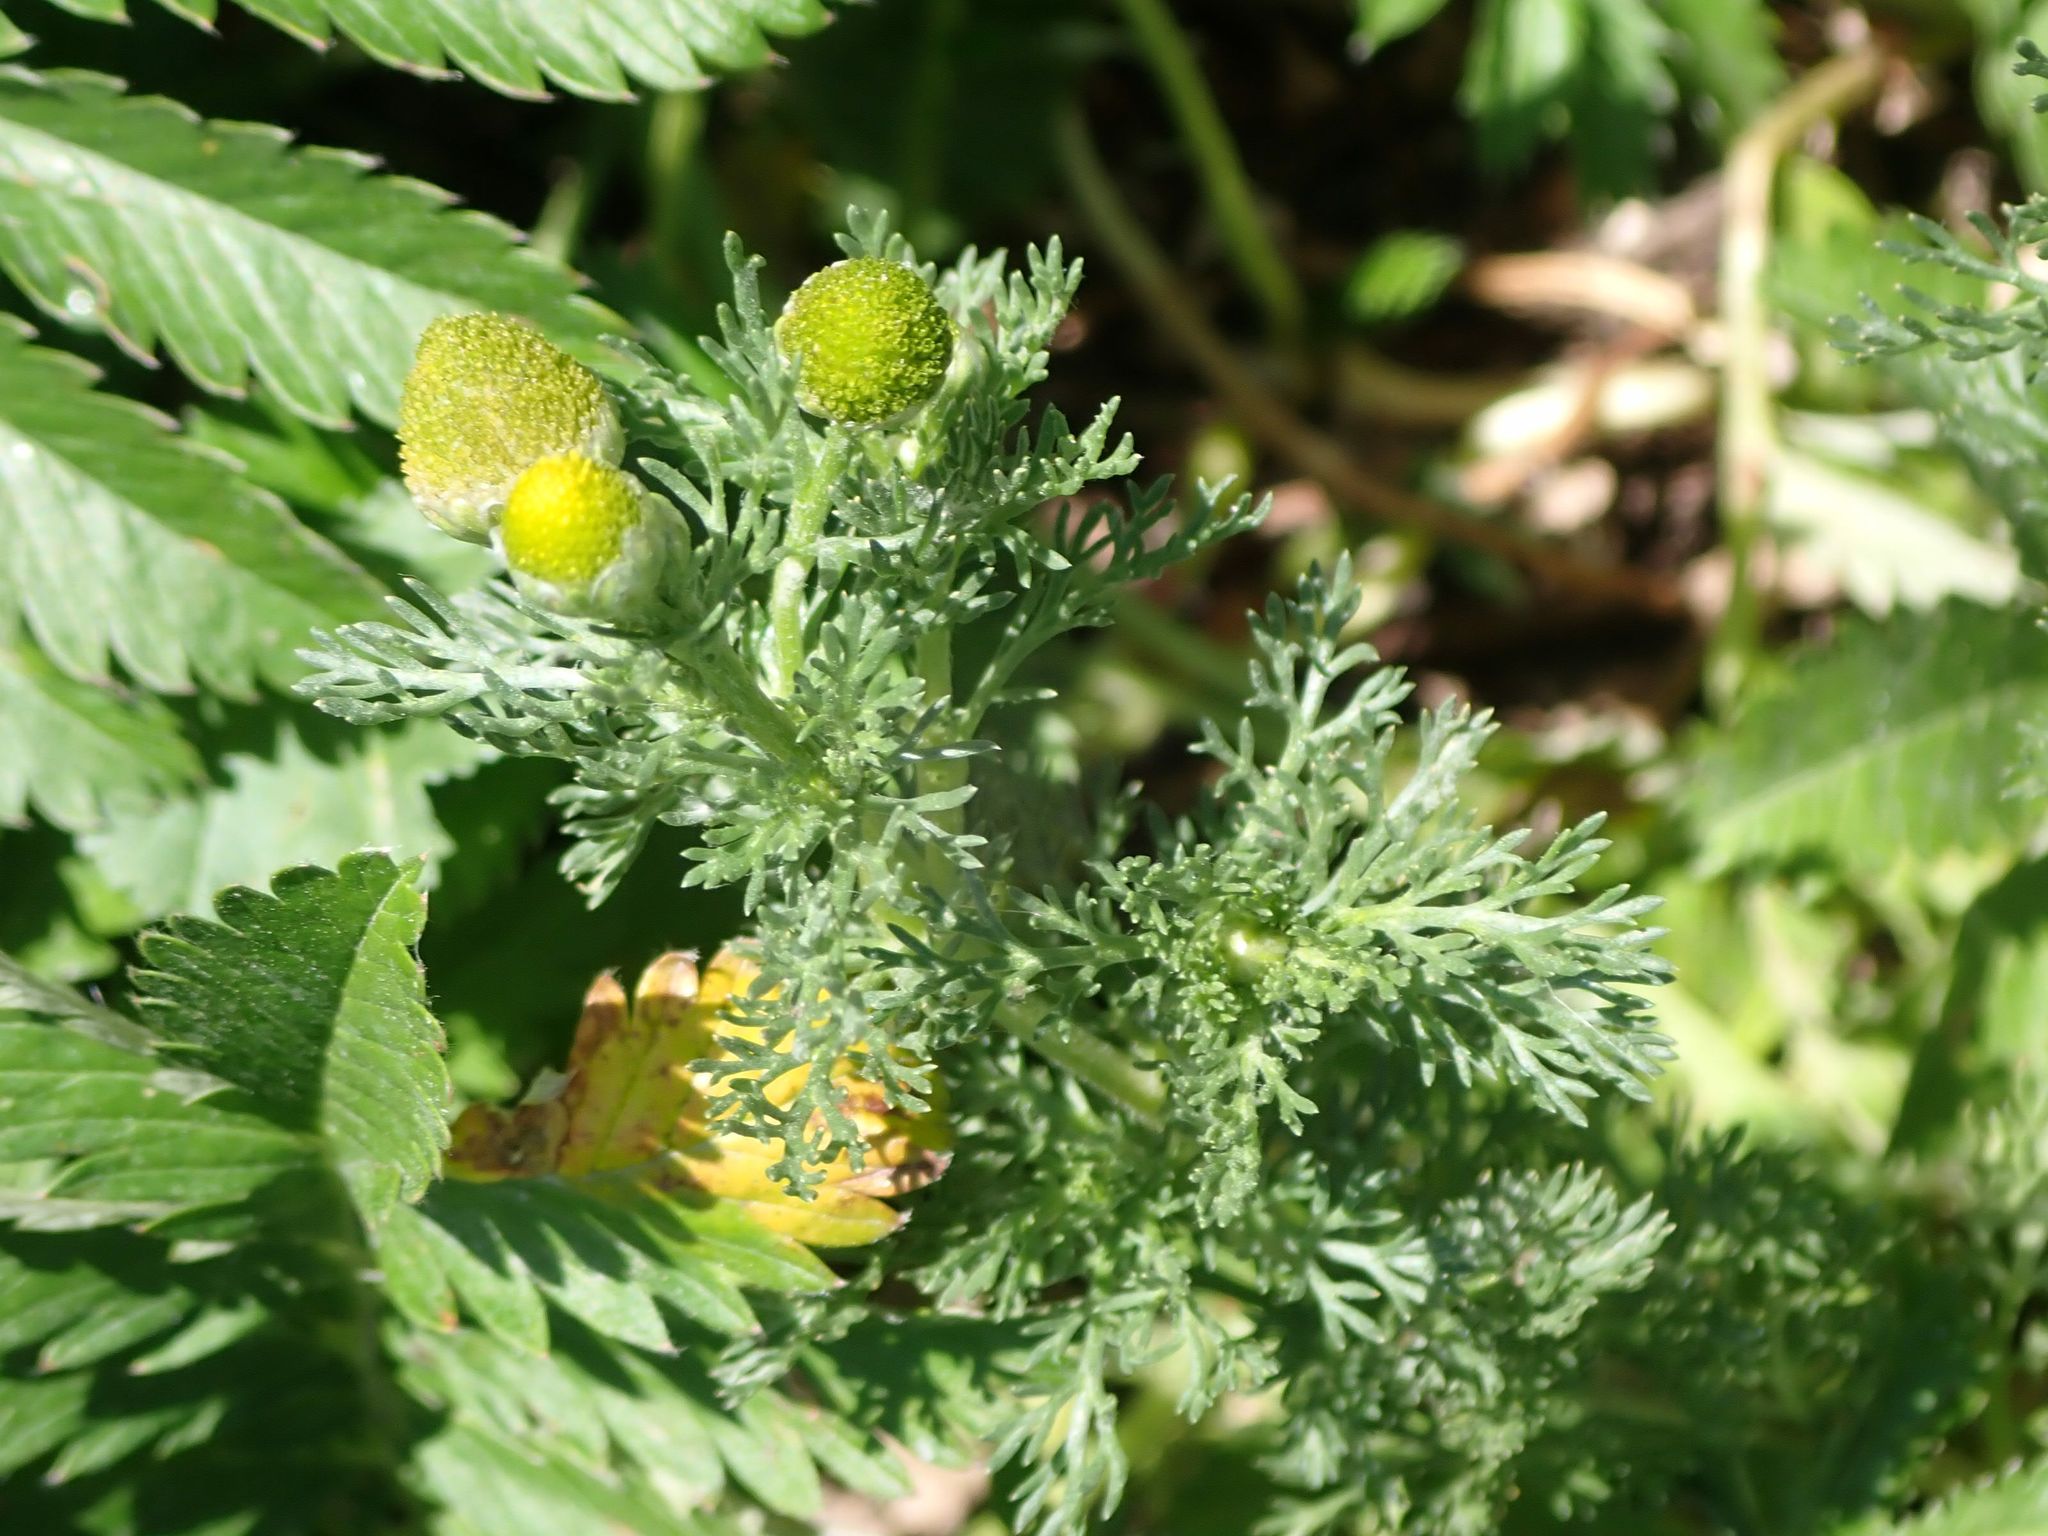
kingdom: Plantae
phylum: Tracheophyta
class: Magnoliopsida
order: Asterales
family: Asteraceae
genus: Matricaria
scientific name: Matricaria discoidea
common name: Disc mayweed
